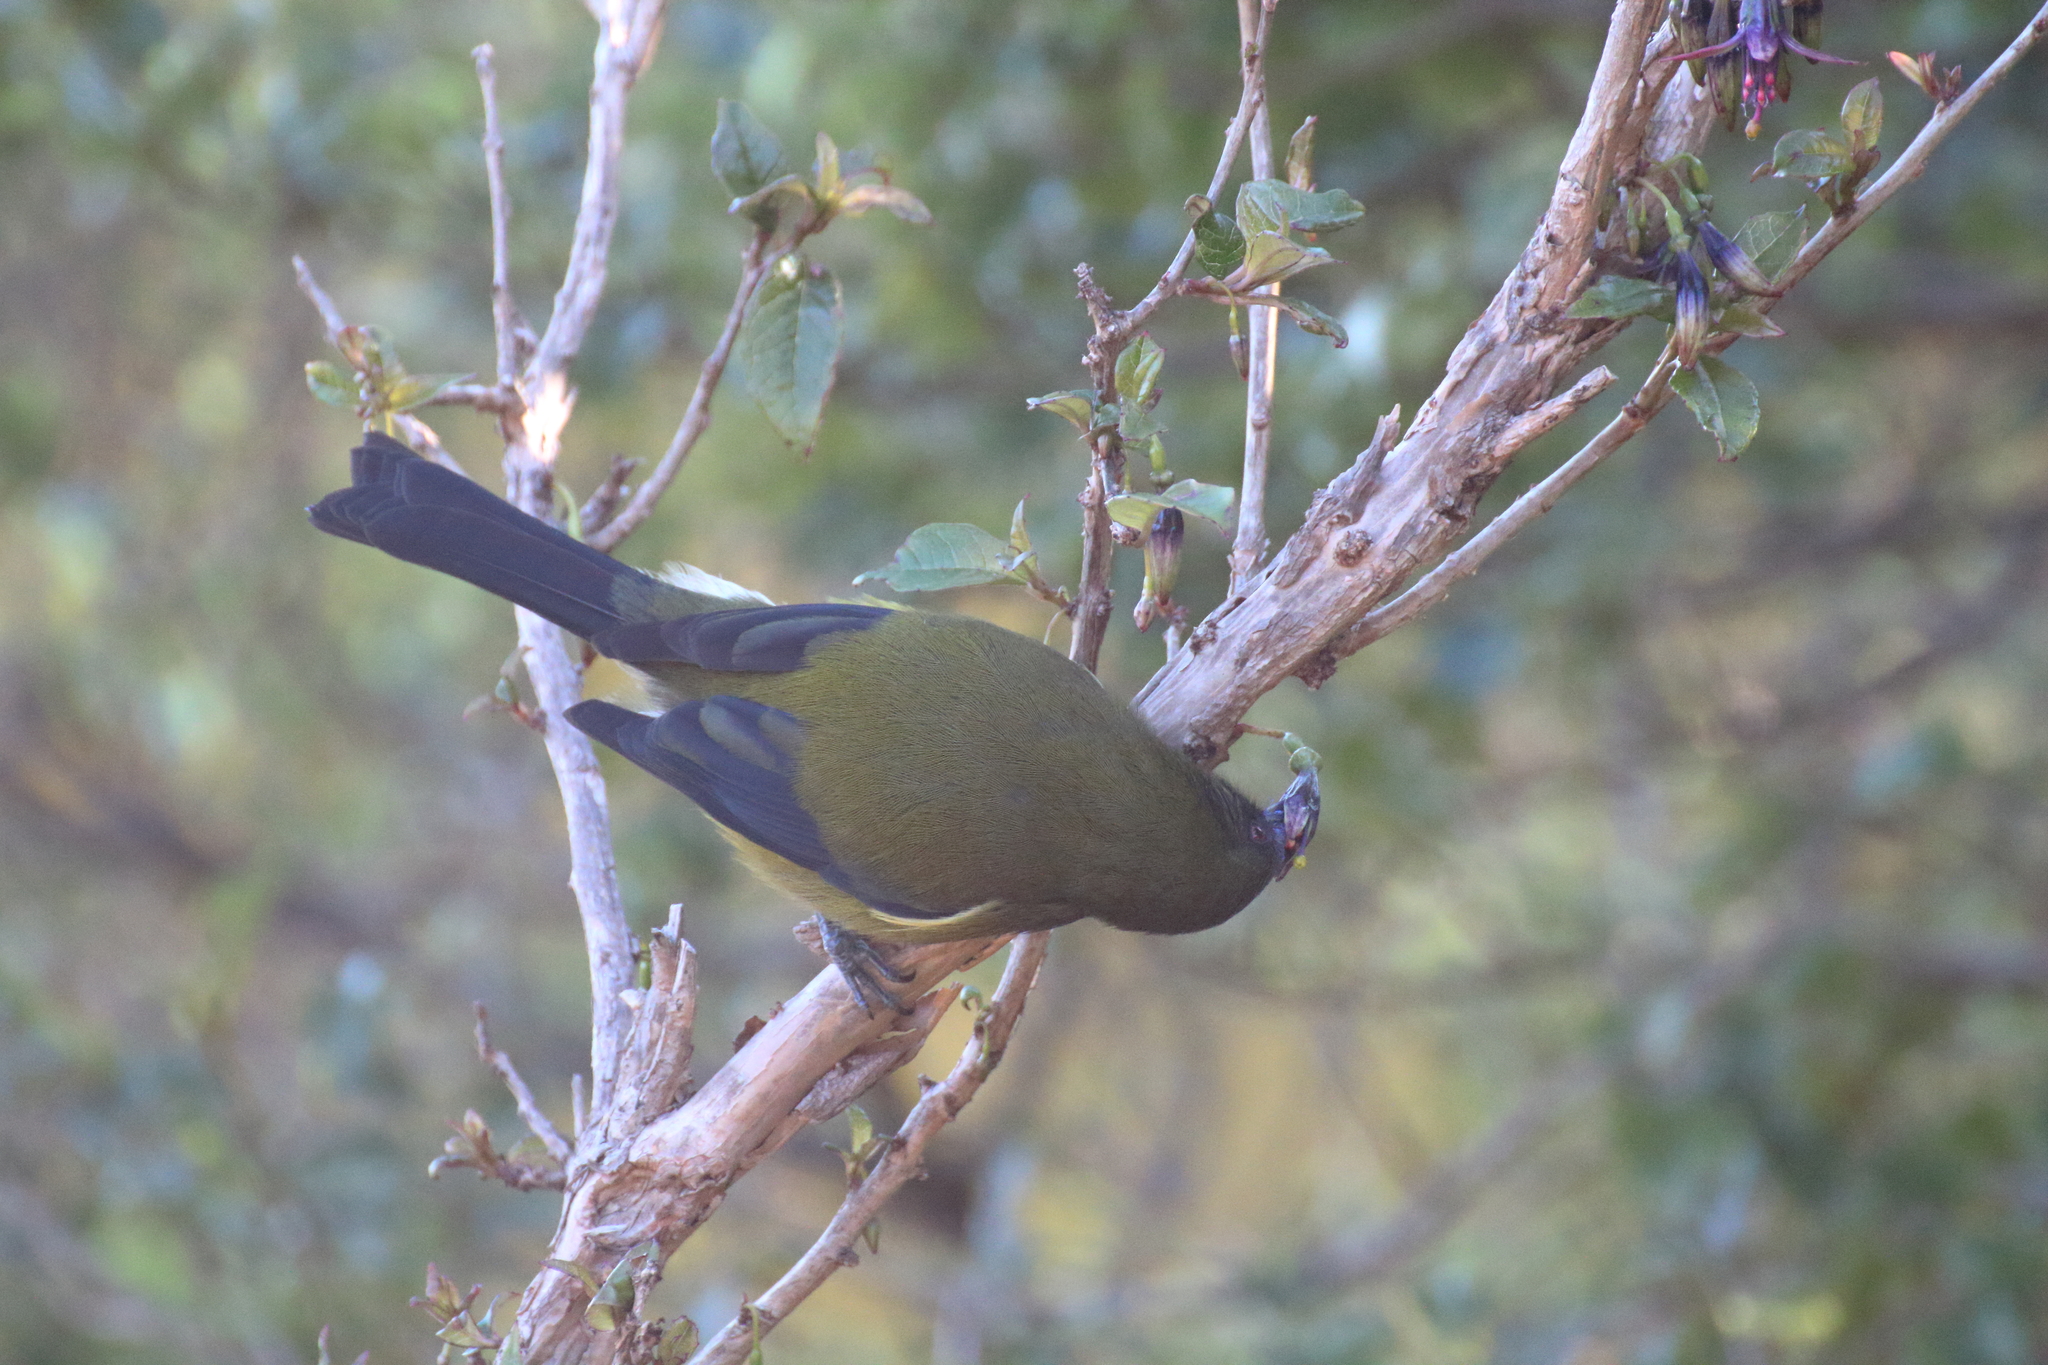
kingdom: Animalia
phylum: Chordata
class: Aves
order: Passeriformes
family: Meliphagidae
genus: Anthornis
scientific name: Anthornis melanura
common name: New zealand bellbird
